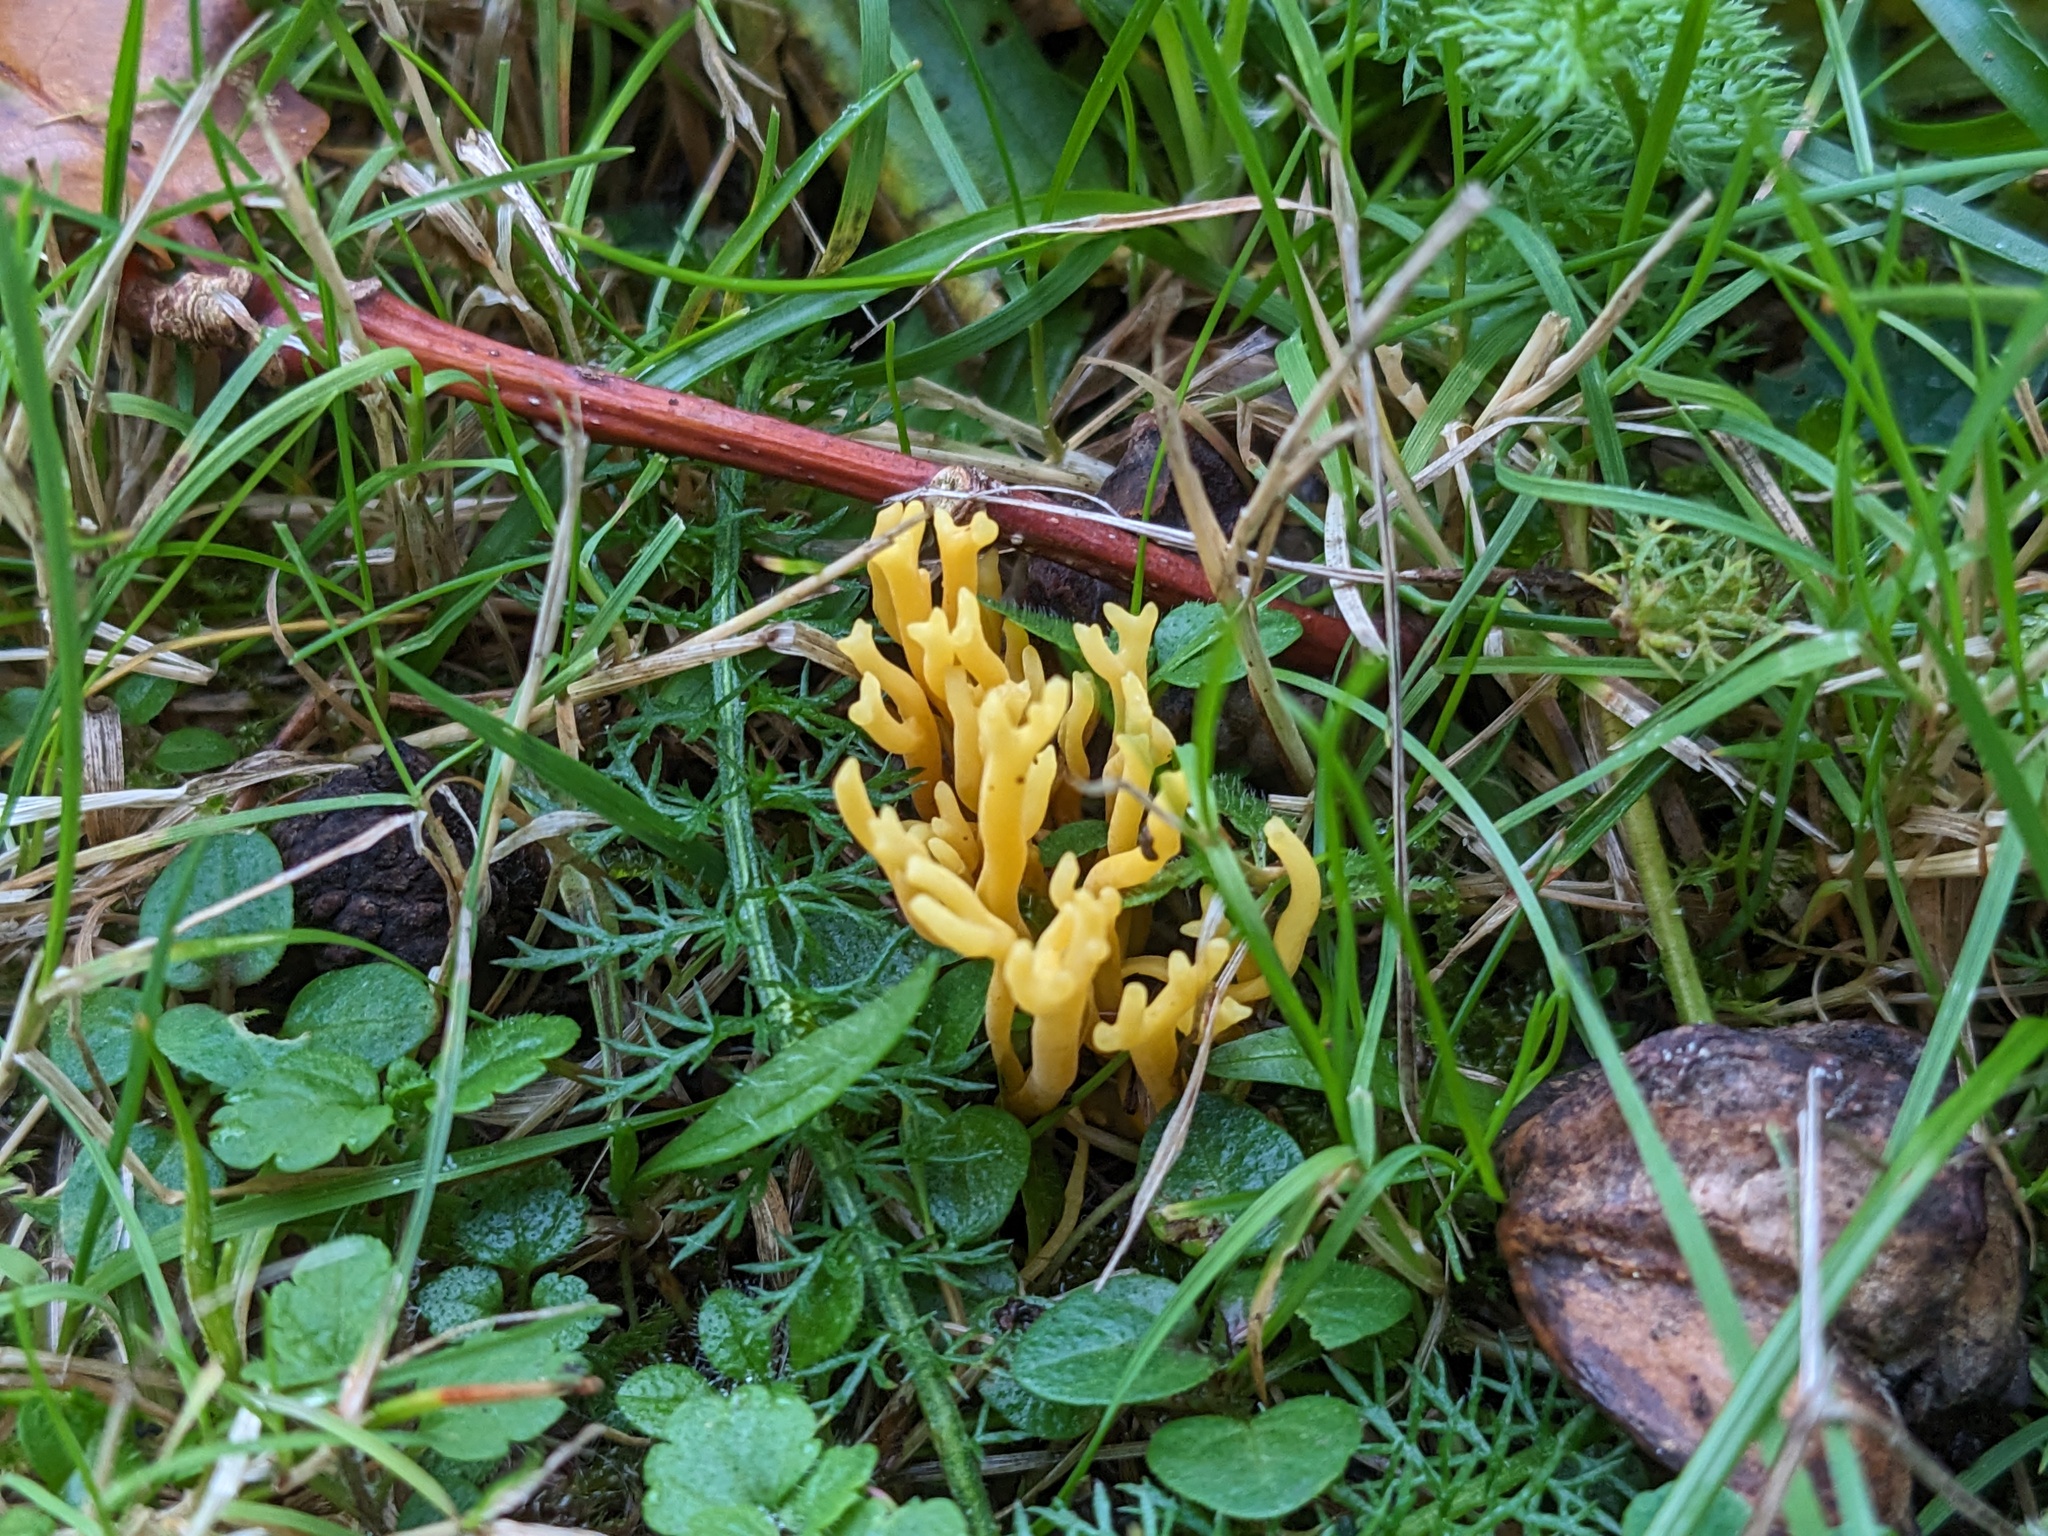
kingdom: Fungi
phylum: Basidiomycota
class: Agaricomycetes
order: Agaricales
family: Clavariaceae
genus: Clavulinopsis
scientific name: Clavulinopsis corniculata
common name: Meadow coral
